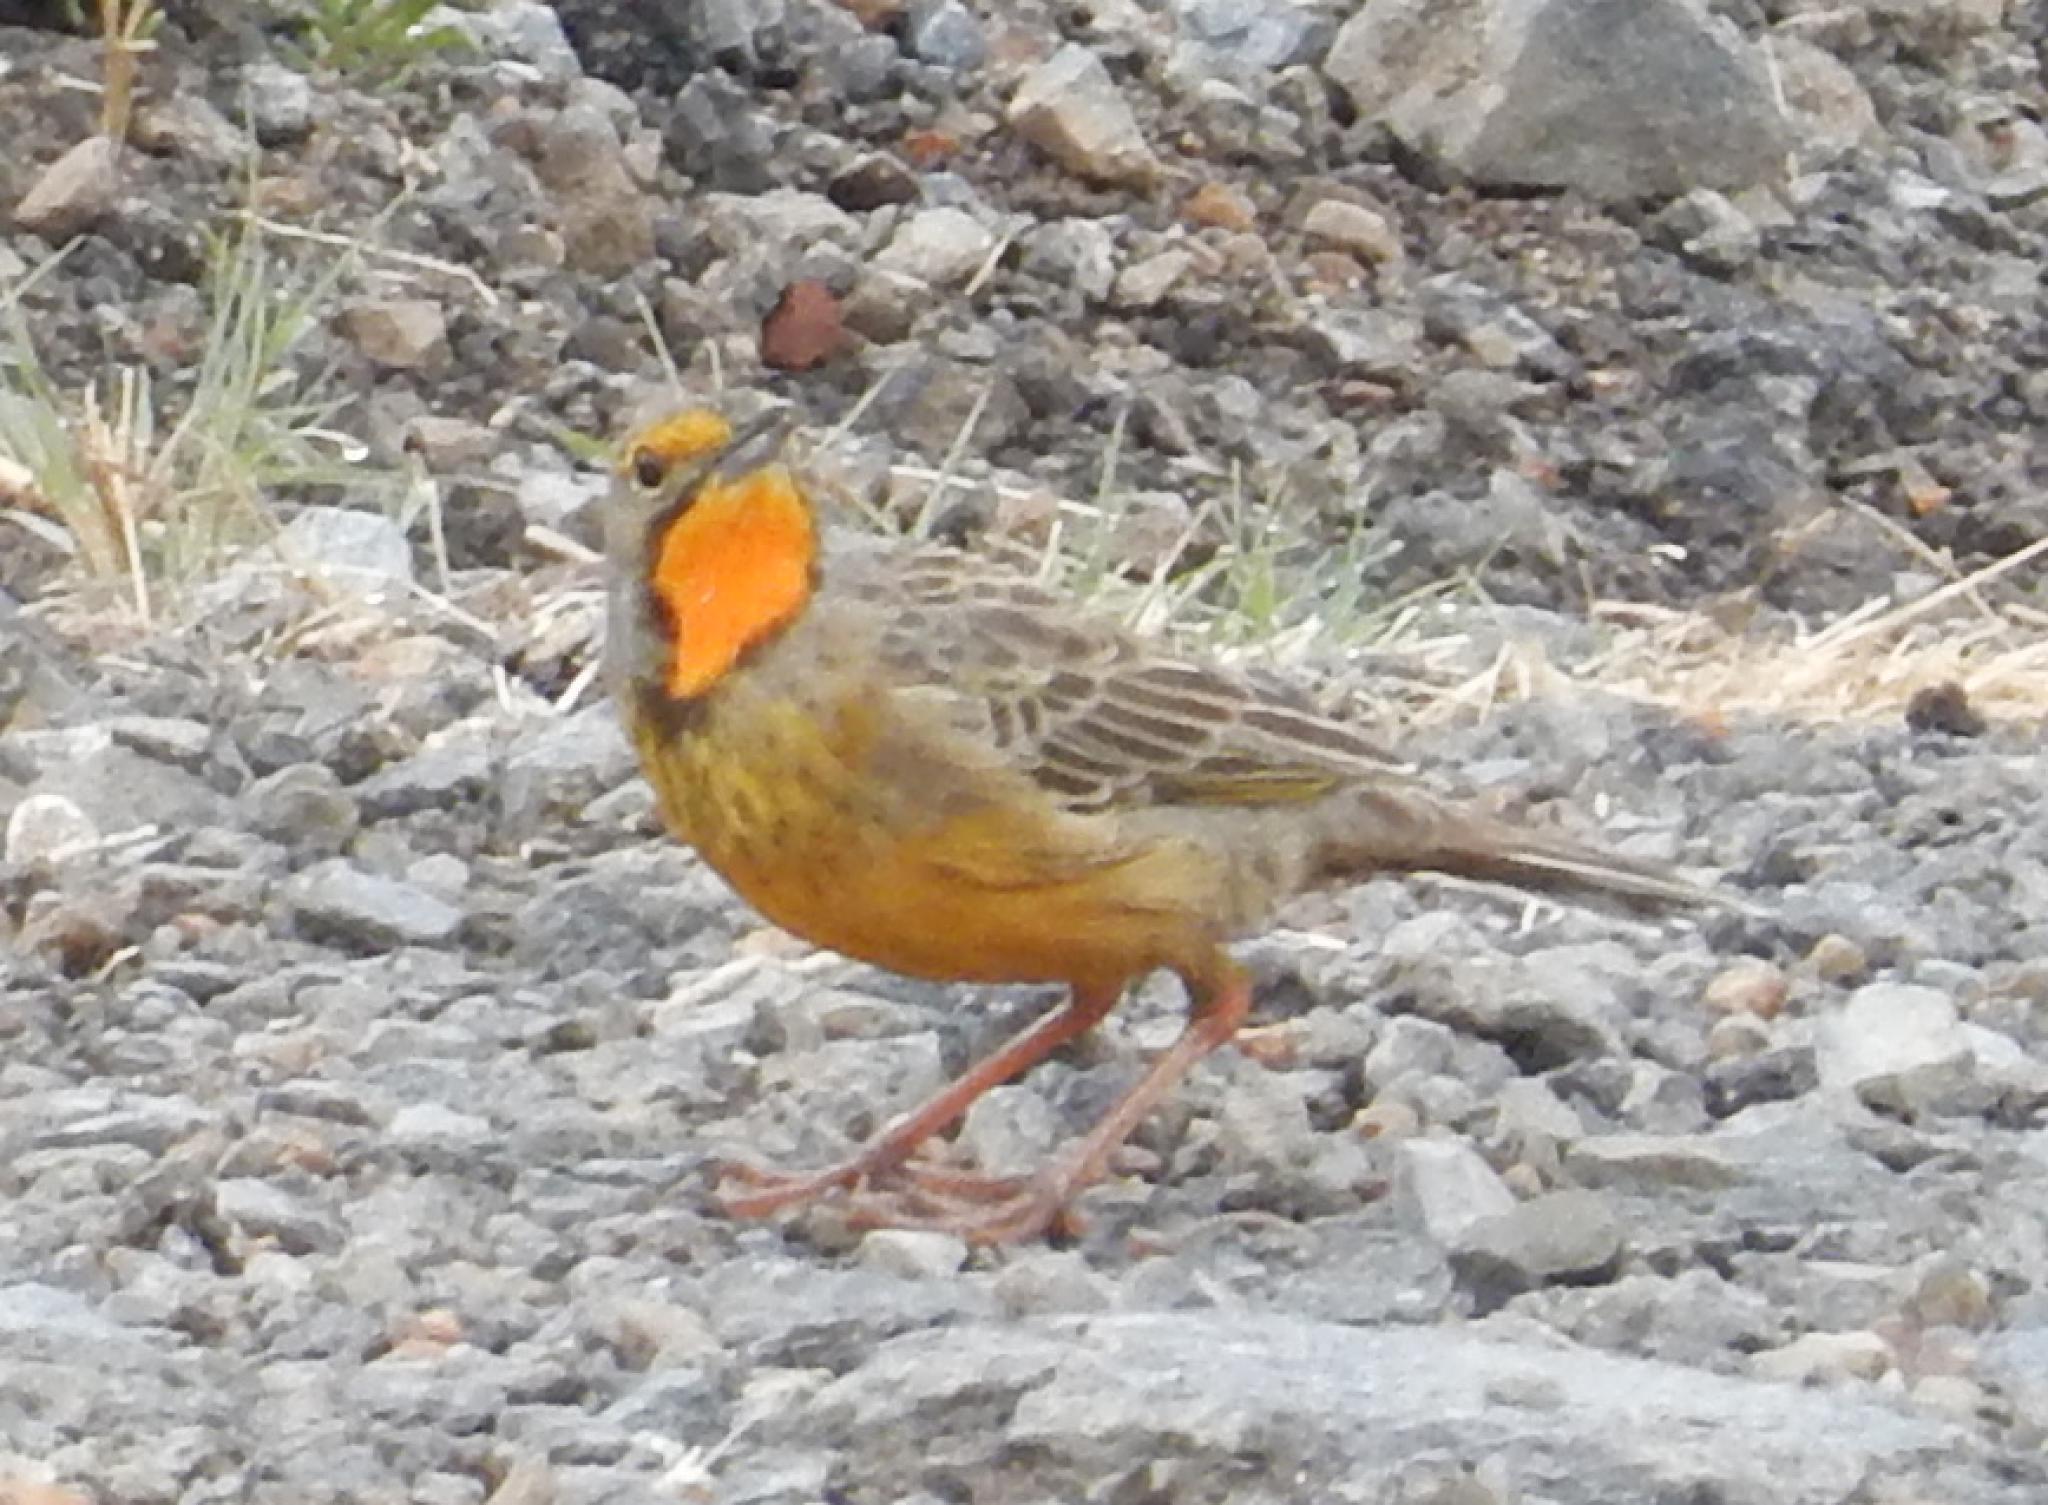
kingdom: Animalia
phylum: Chordata
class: Aves
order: Passeriformes
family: Motacillidae
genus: Macronyx
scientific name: Macronyx capensis
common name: Cape longclaw
